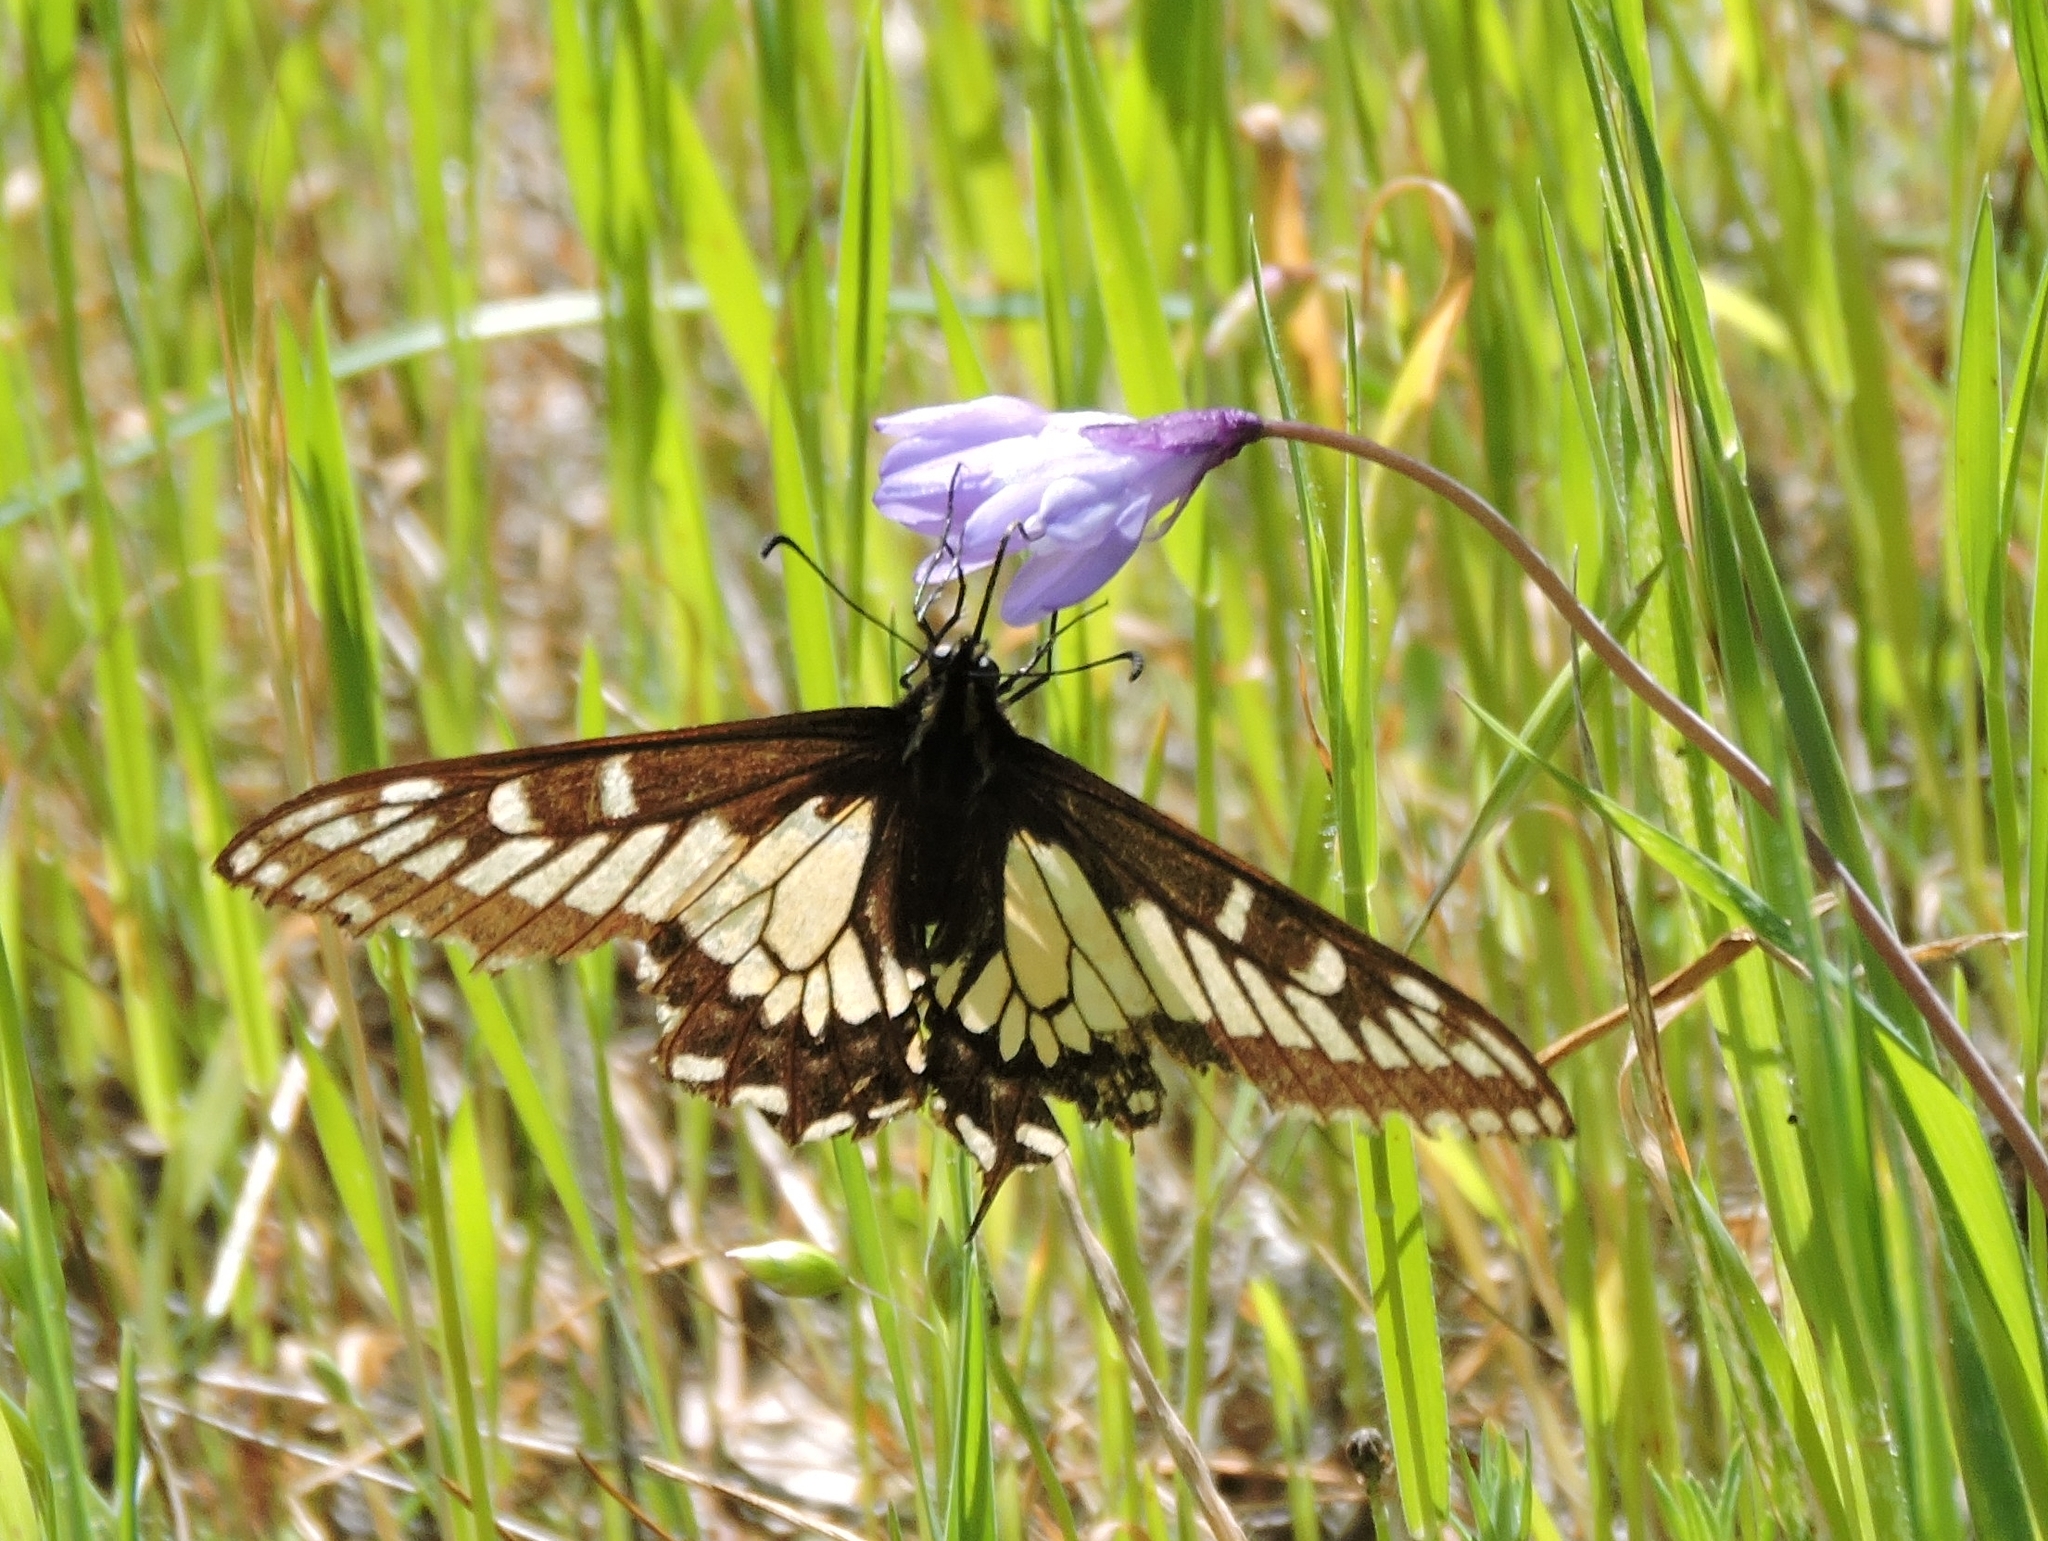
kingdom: Animalia
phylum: Arthropoda
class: Insecta
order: Lepidoptera
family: Papilionidae
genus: Papilio
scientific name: Papilio zelicaon
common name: Anise swallowtail
